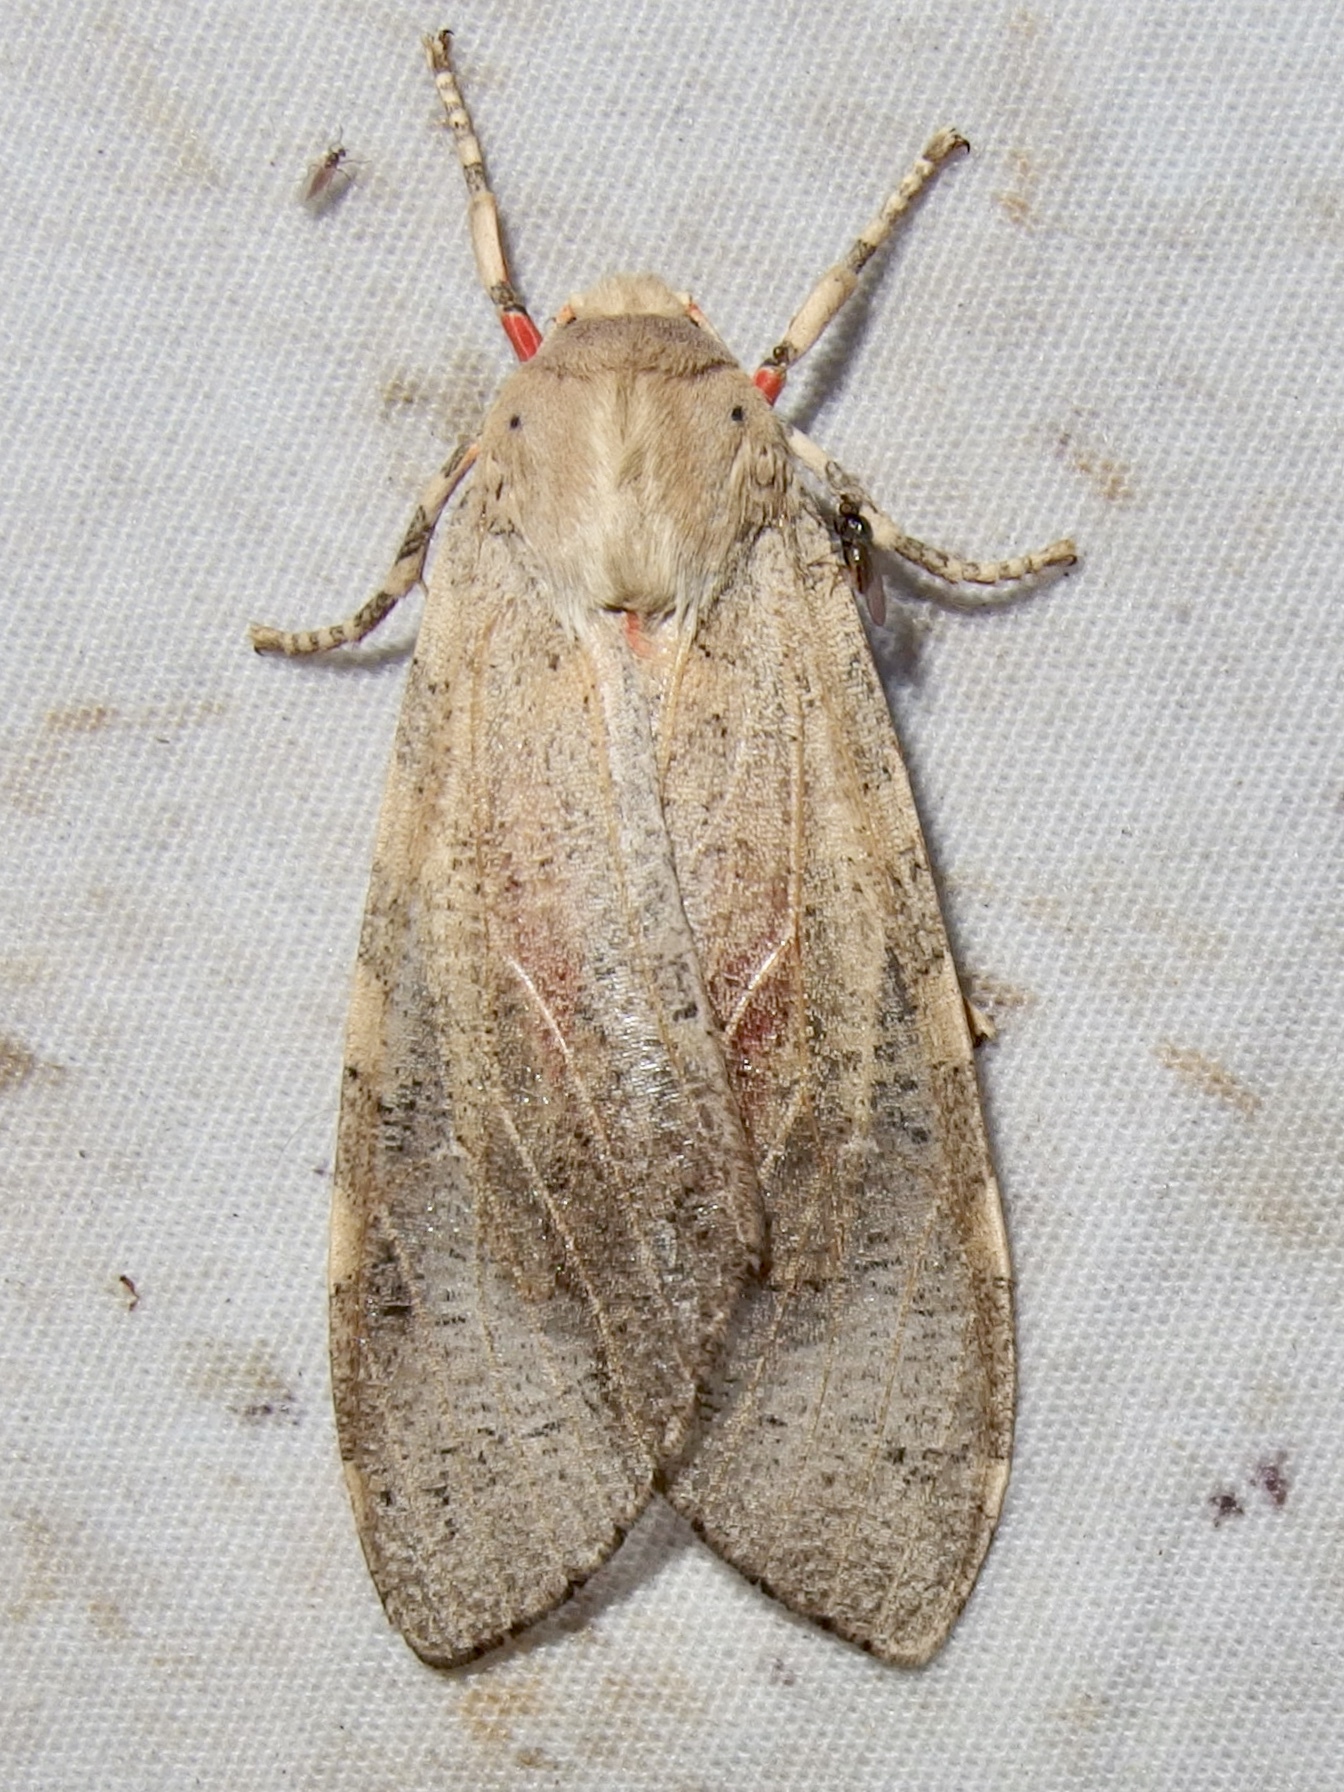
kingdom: Animalia
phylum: Arthropoda
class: Insecta
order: Lepidoptera
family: Erebidae
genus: Hemihyalea
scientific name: Hemihyalea edwardsii
